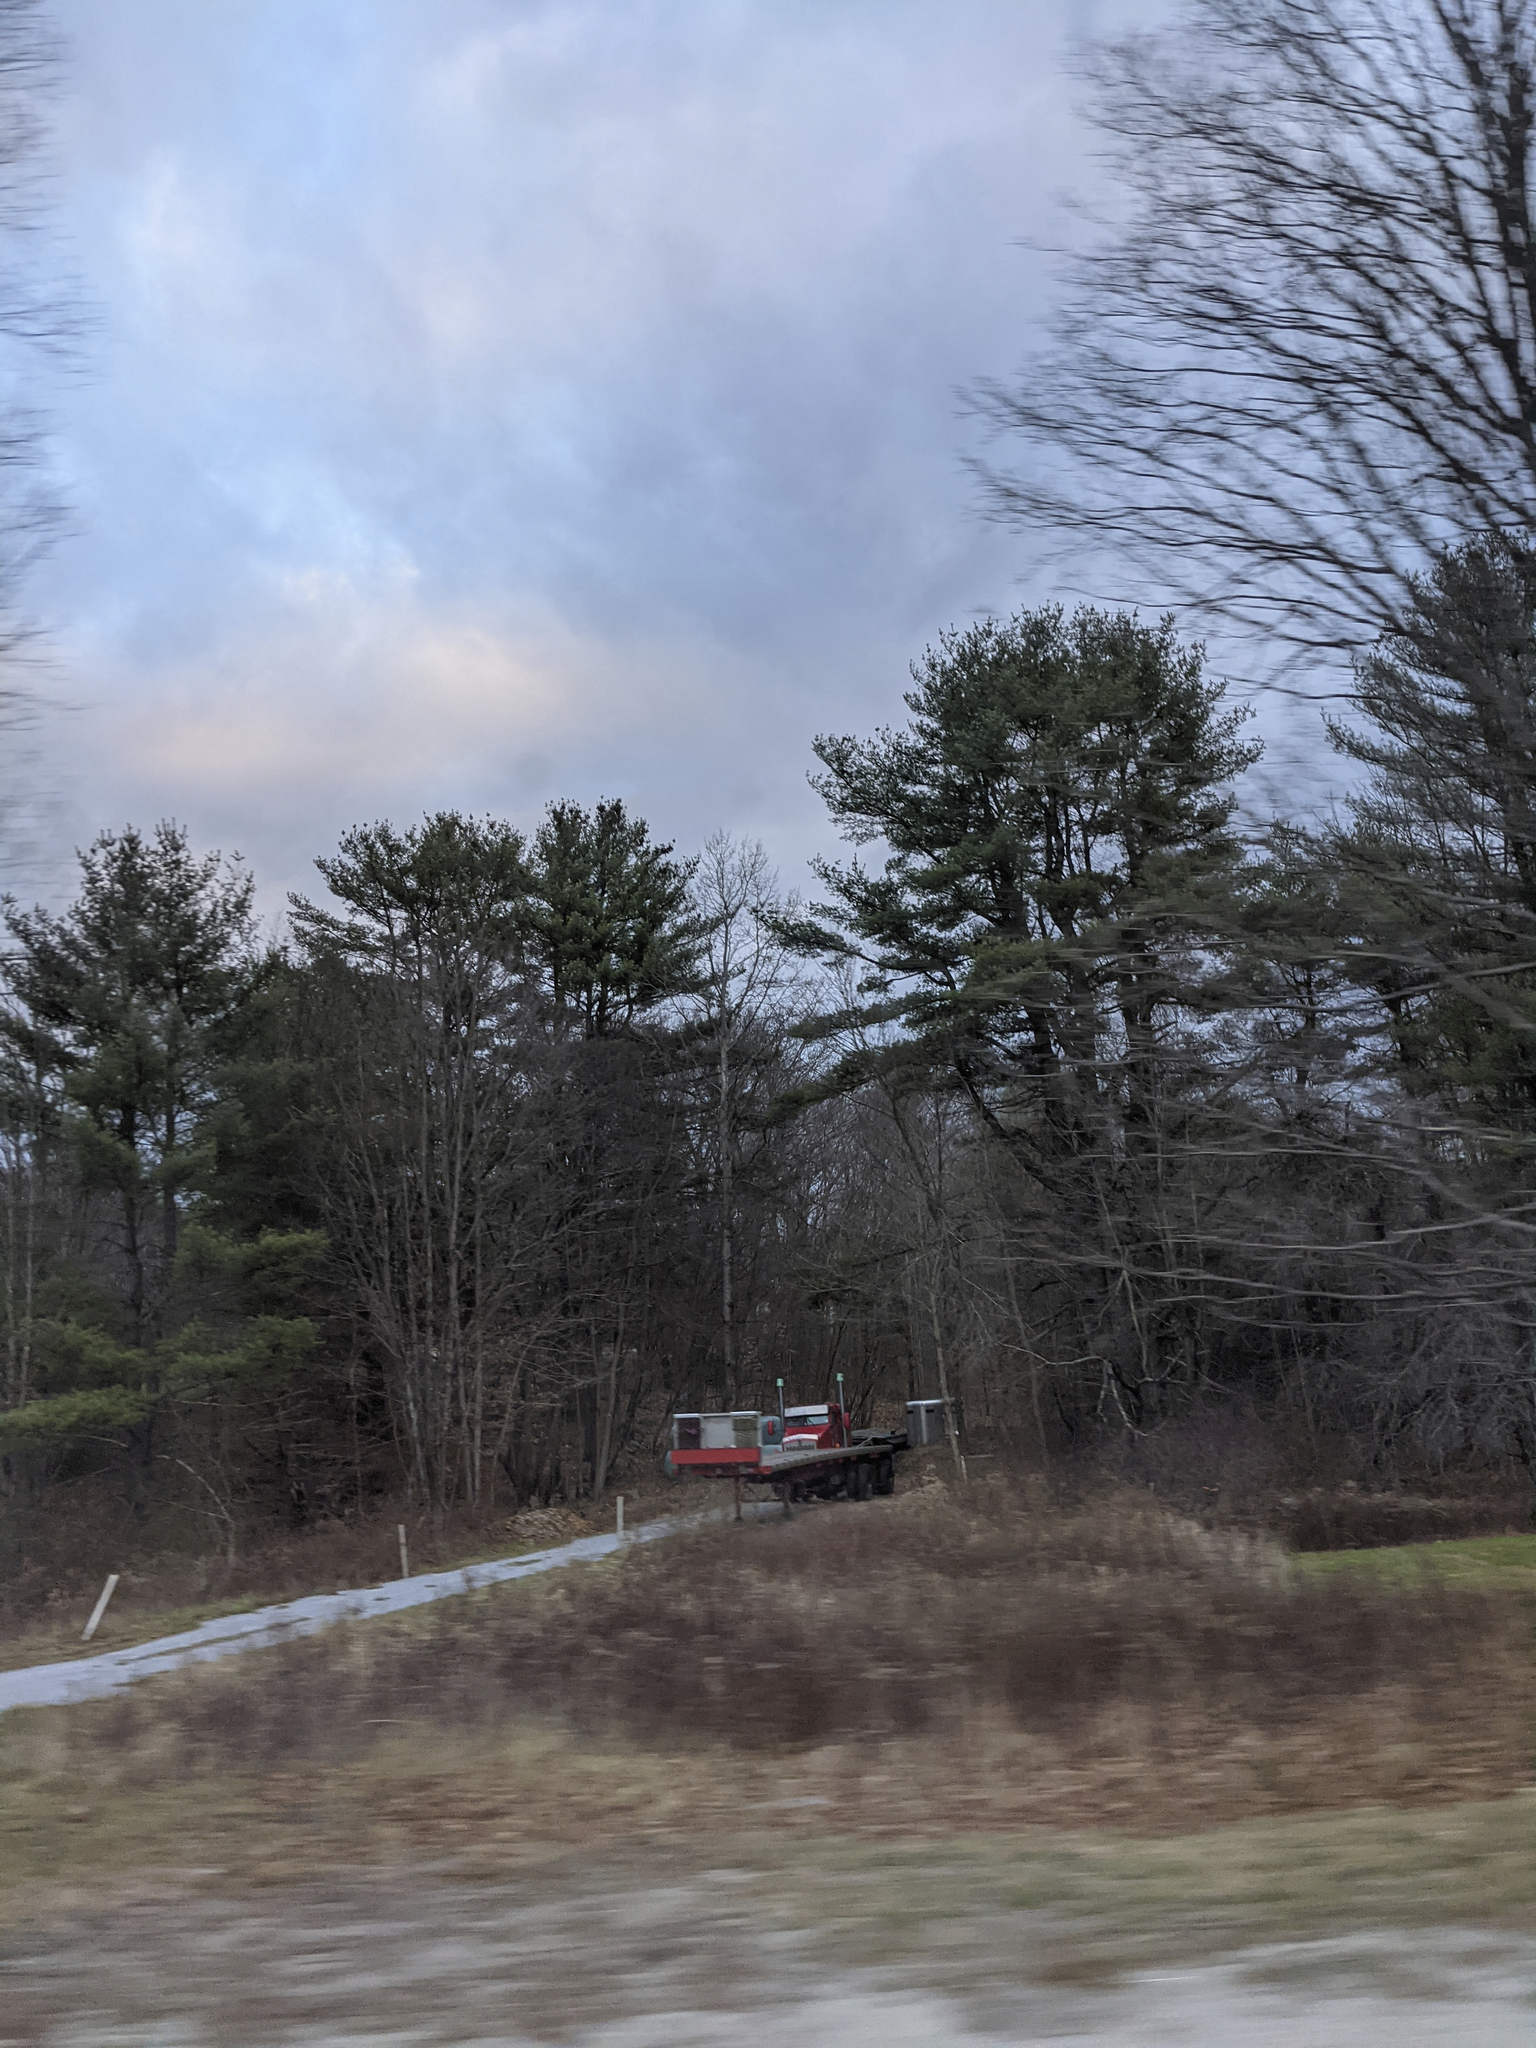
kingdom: Plantae
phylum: Tracheophyta
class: Pinopsida
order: Pinales
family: Pinaceae
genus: Pinus
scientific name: Pinus strobus
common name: Weymouth pine
